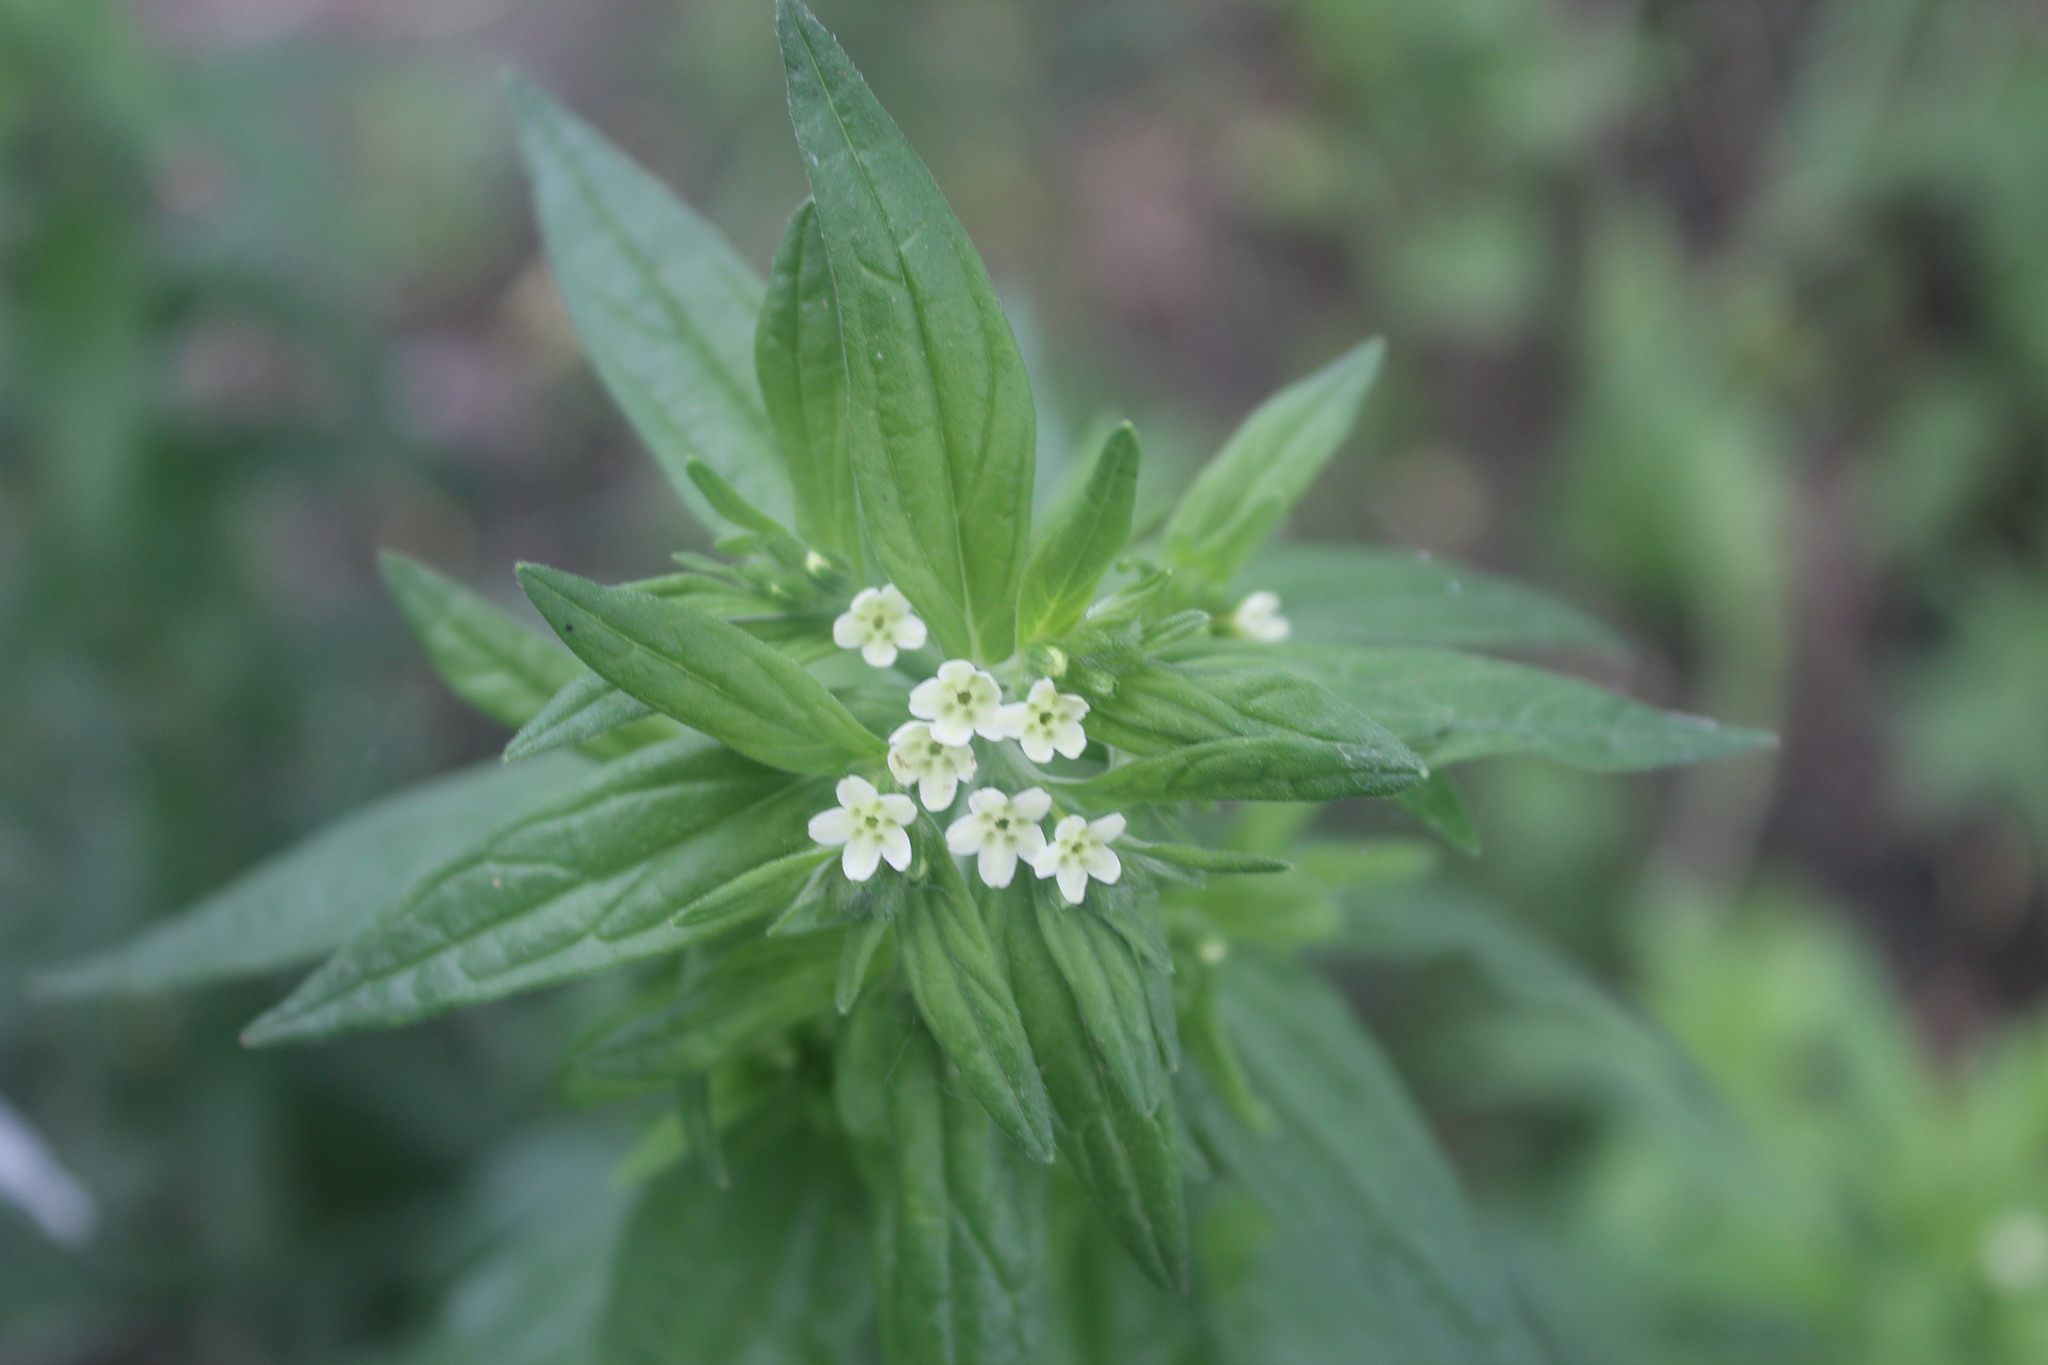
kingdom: Plantae
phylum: Tracheophyta
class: Magnoliopsida
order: Boraginales
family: Boraginaceae
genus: Lithospermum
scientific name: Lithospermum officinale
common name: Common gromwell
